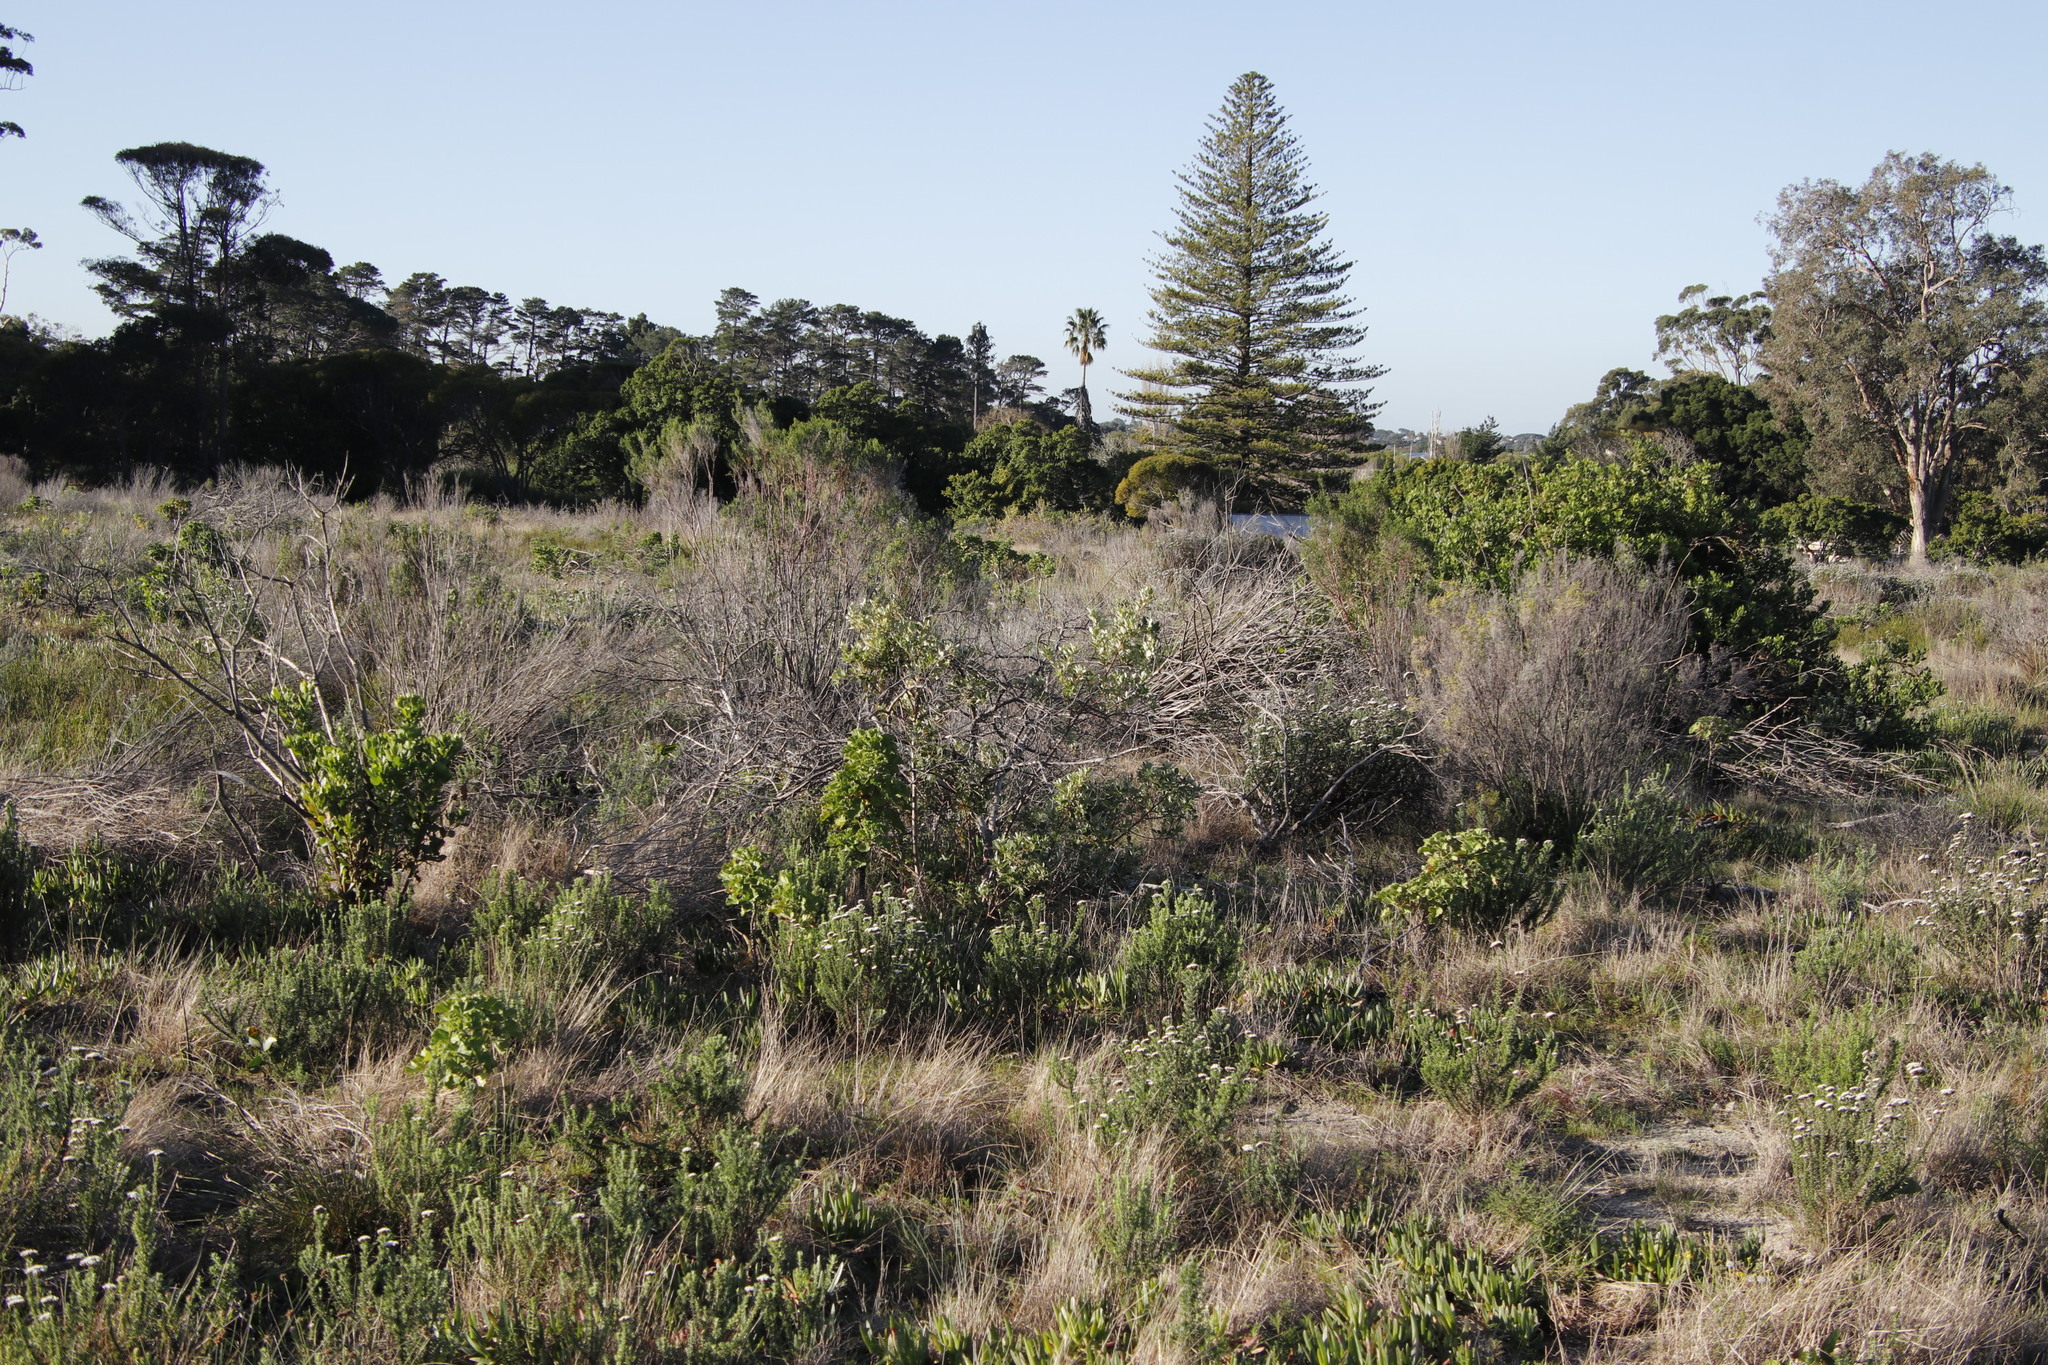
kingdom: Plantae
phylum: Tracheophyta
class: Magnoliopsida
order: Sapindales
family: Anacardiaceae
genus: Searsia
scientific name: Searsia tomentosa
